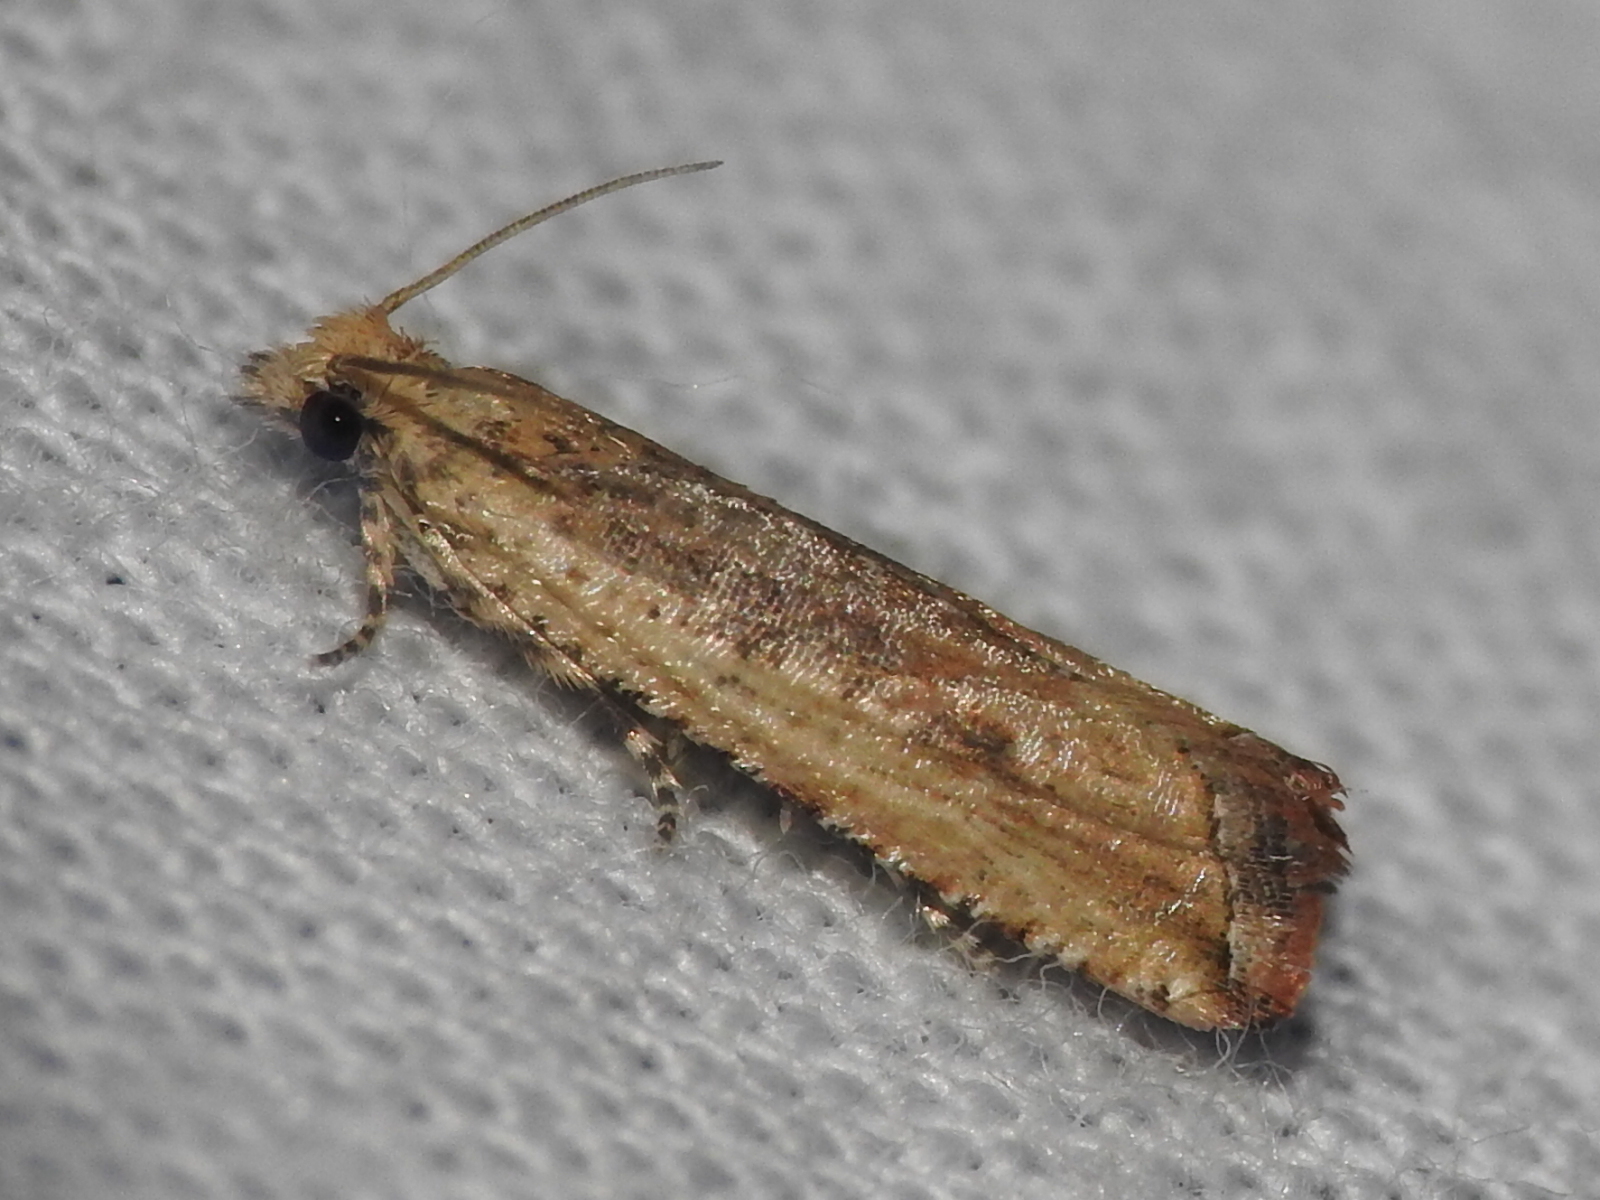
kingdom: Animalia
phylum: Arthropoda
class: Insecta
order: Lepidoptera
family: Tortricidae
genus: Bactra
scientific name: Bactra verutana
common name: Javelin moth
